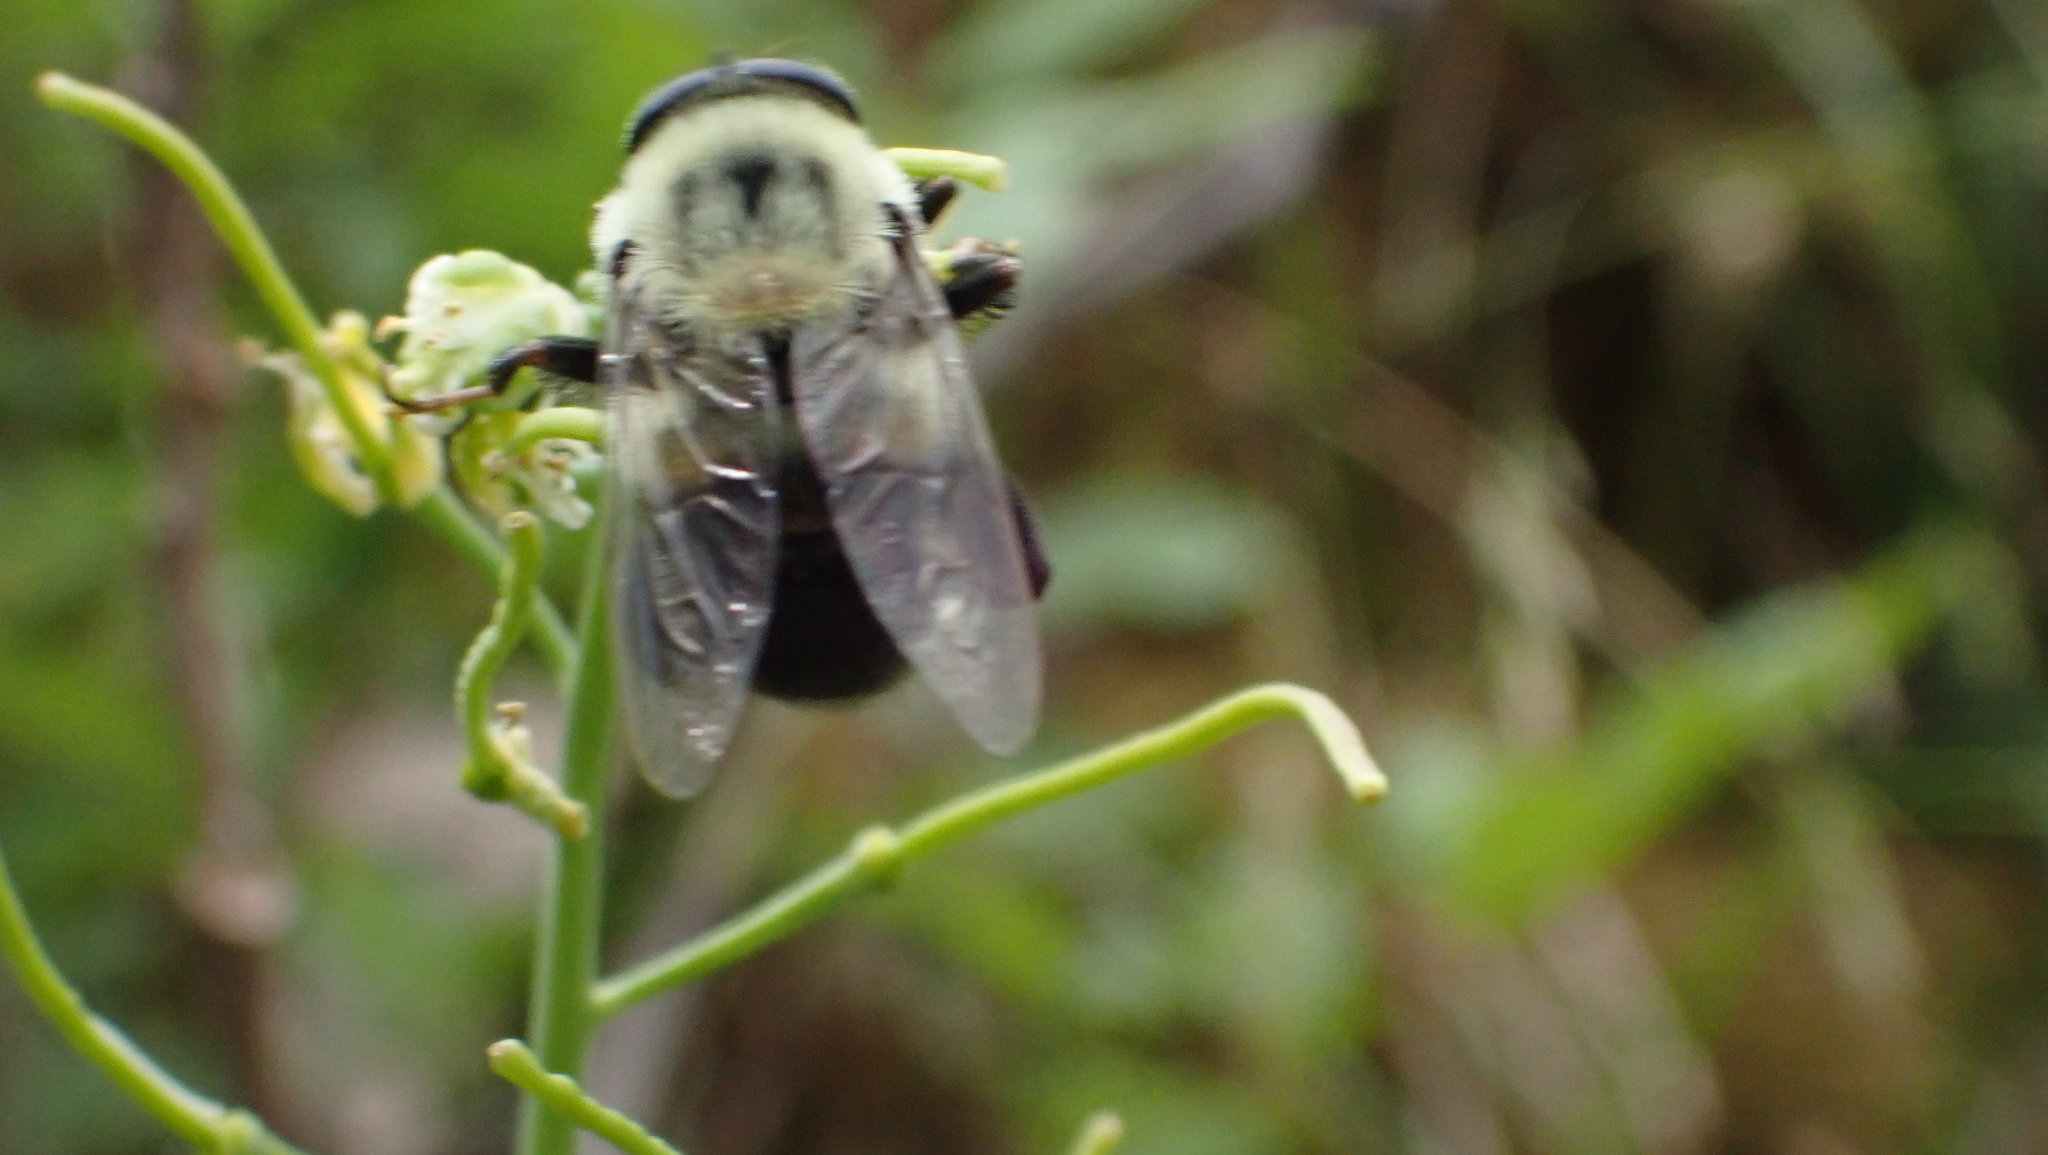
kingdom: Animalia
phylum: Arthropoda
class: Insecta
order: Diptera
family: Syrphidae
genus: Imatisma
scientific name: Imatisma posticata
